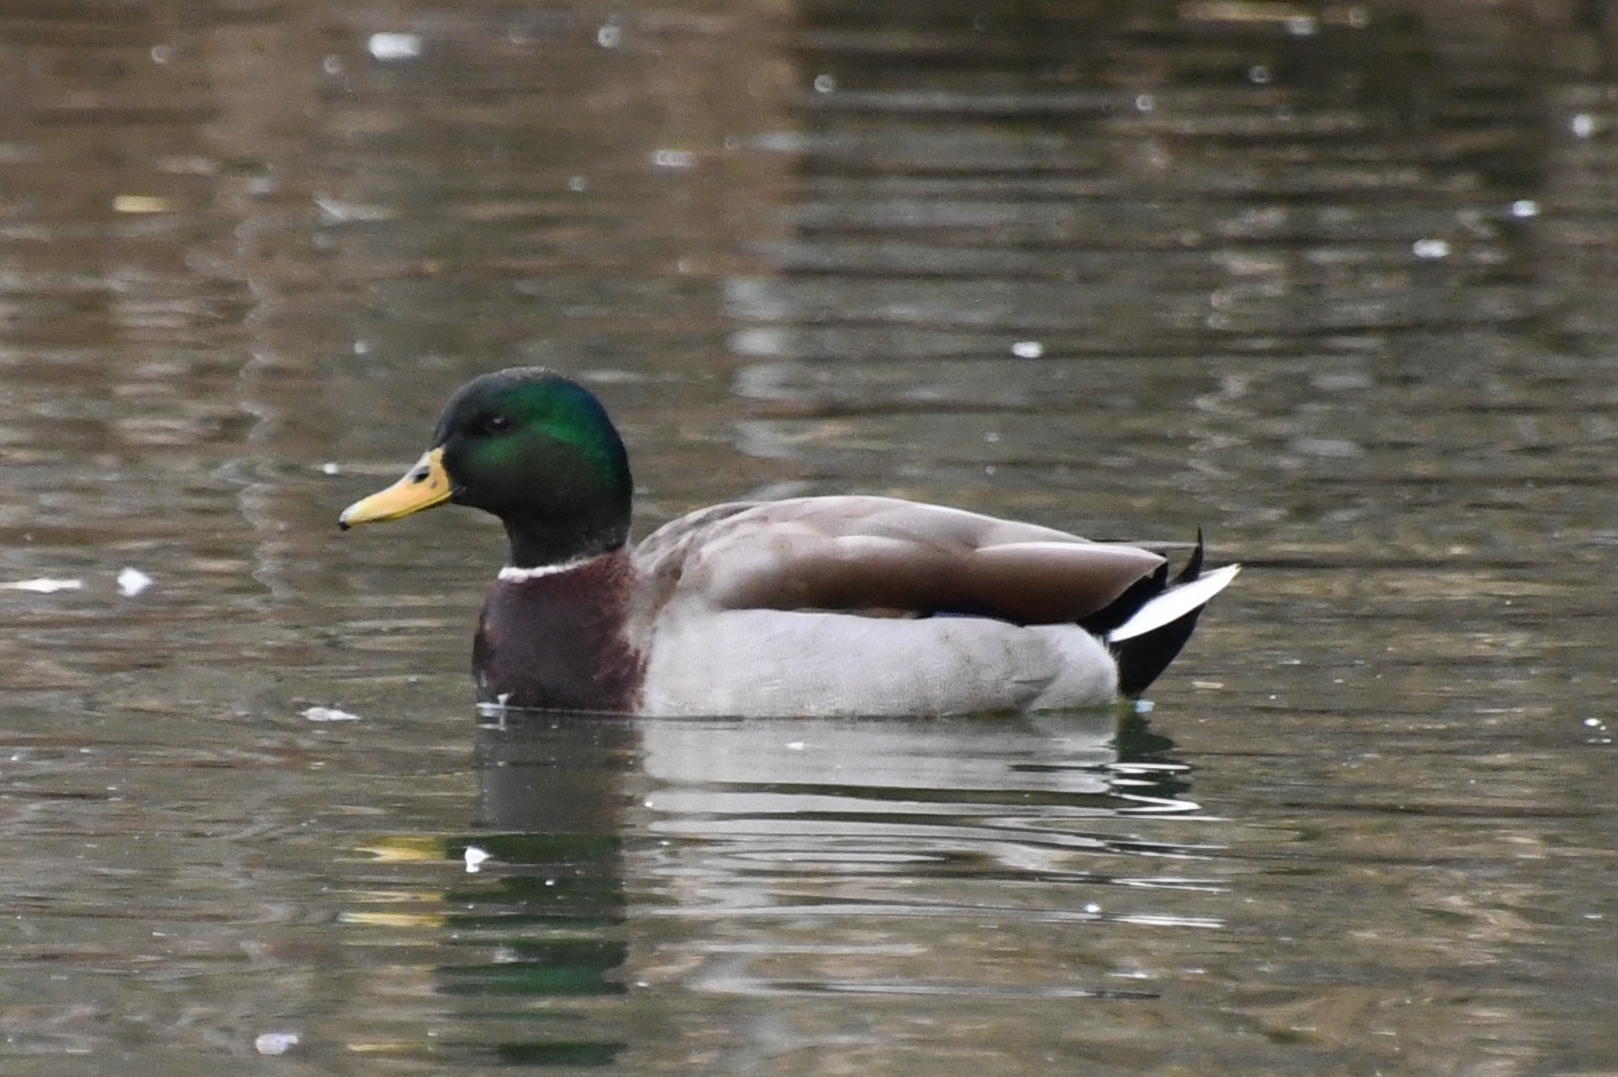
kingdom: Animalia
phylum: Chordata
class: Aves
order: Anseriformes
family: Anatidae
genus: Anas
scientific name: Anas platyrhynchos
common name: Mallard
